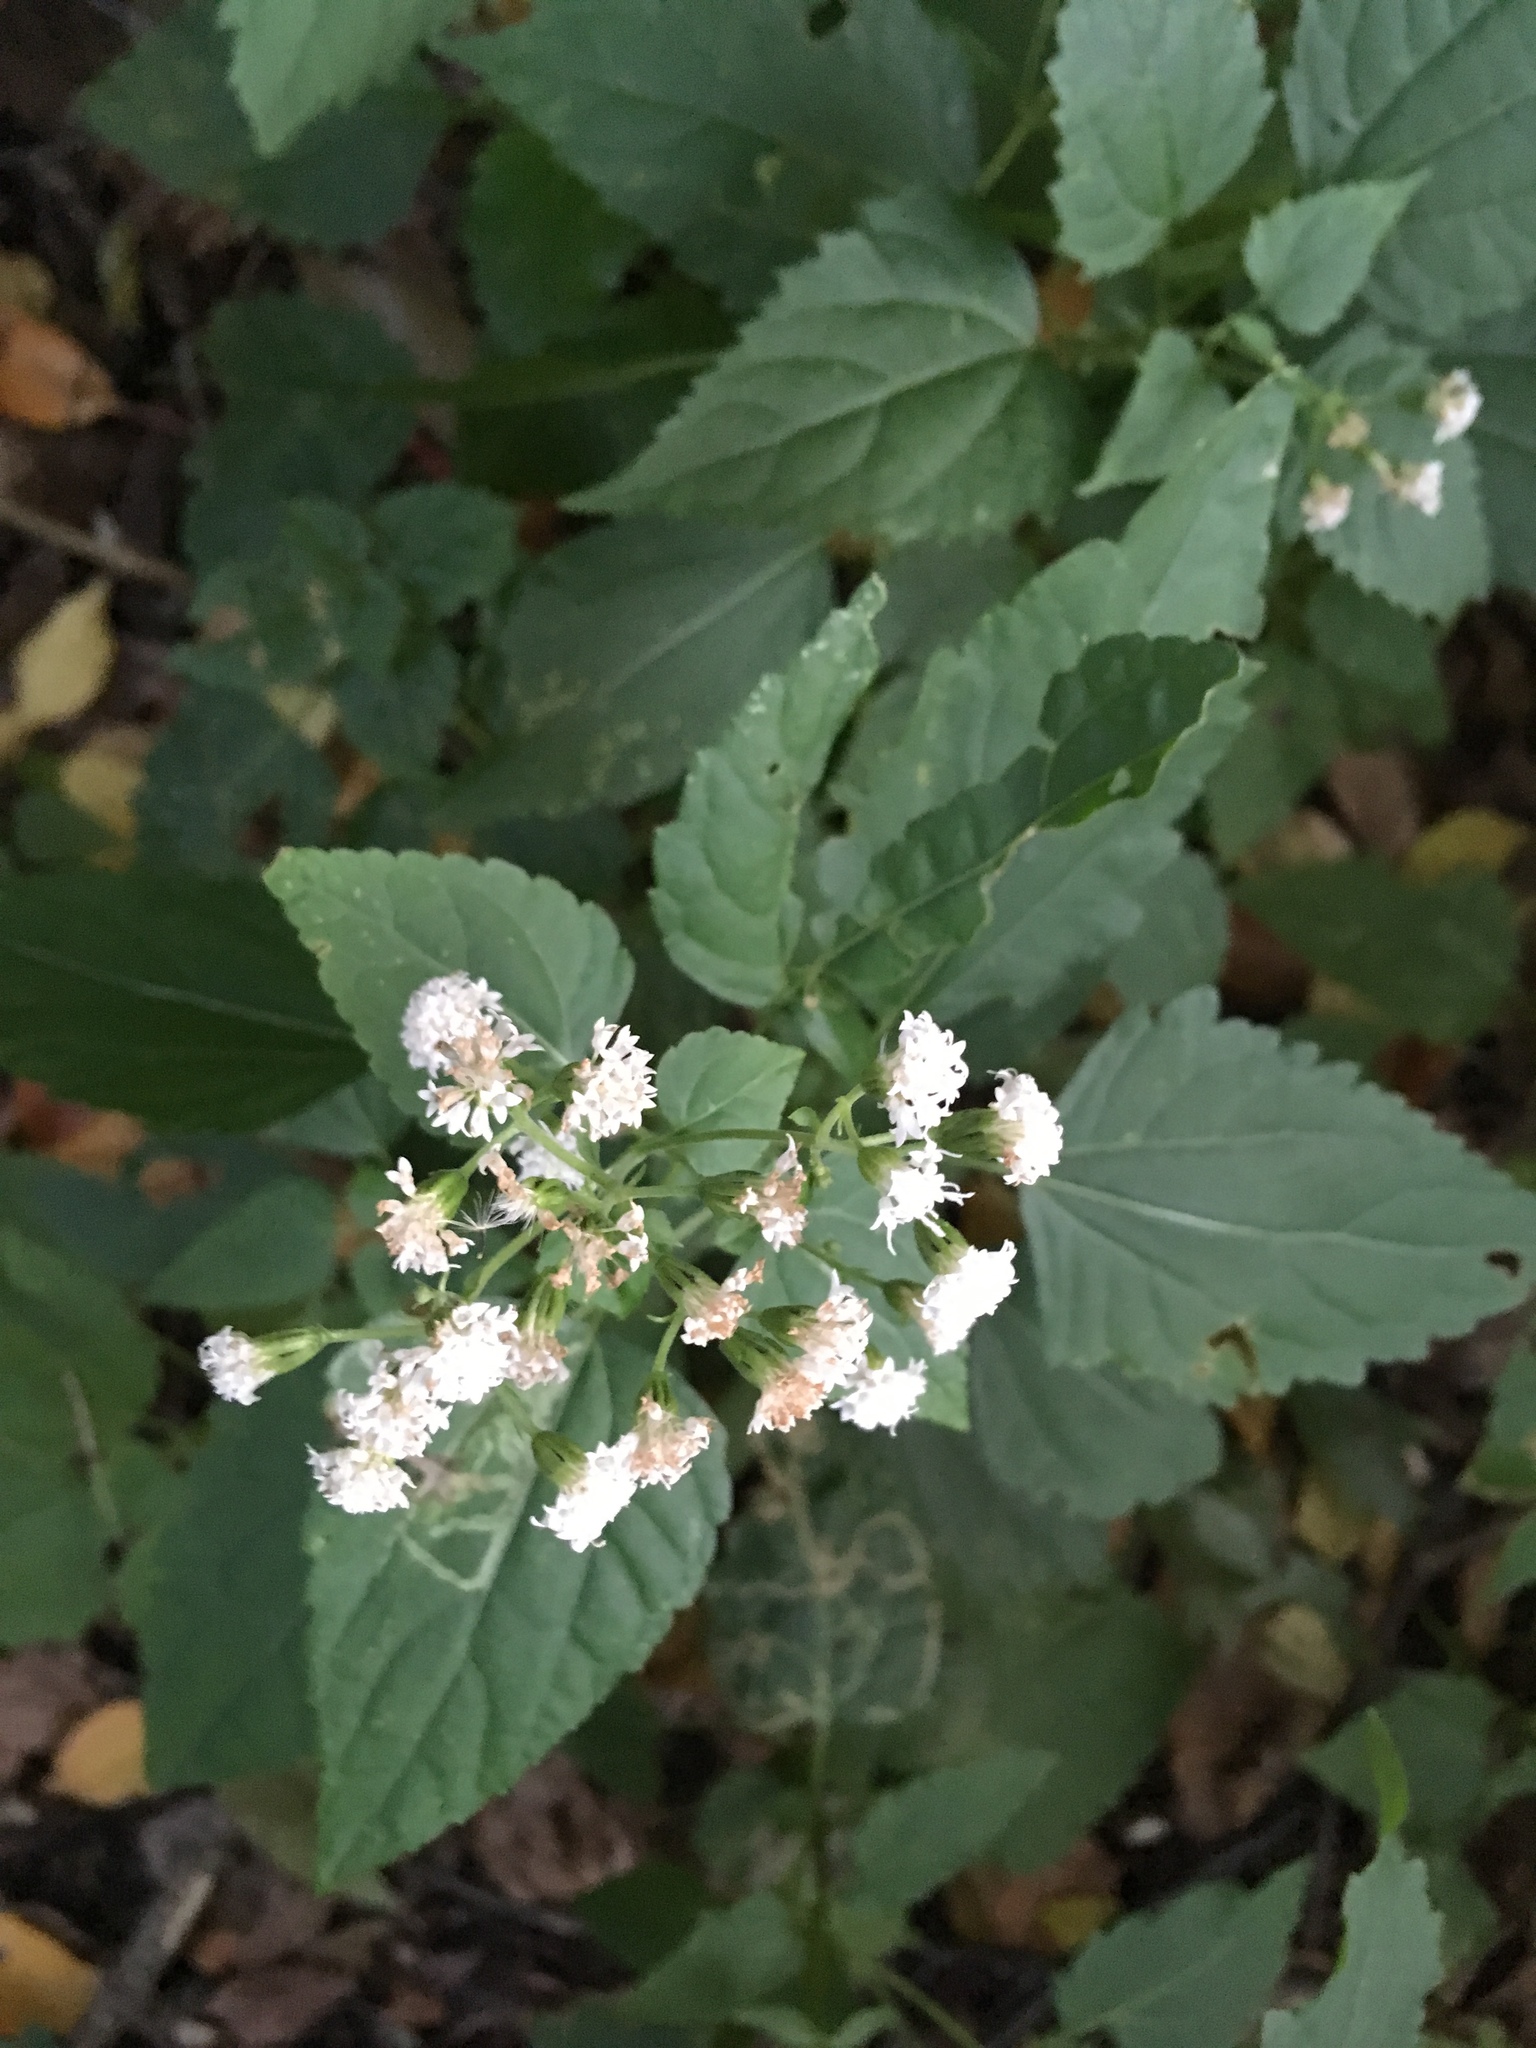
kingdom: Plantae
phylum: Tracheophyta
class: Magnoliopsida
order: Asterales
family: Asteraceae
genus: Ageratina
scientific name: Ageratina altissima
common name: White snakeroot
